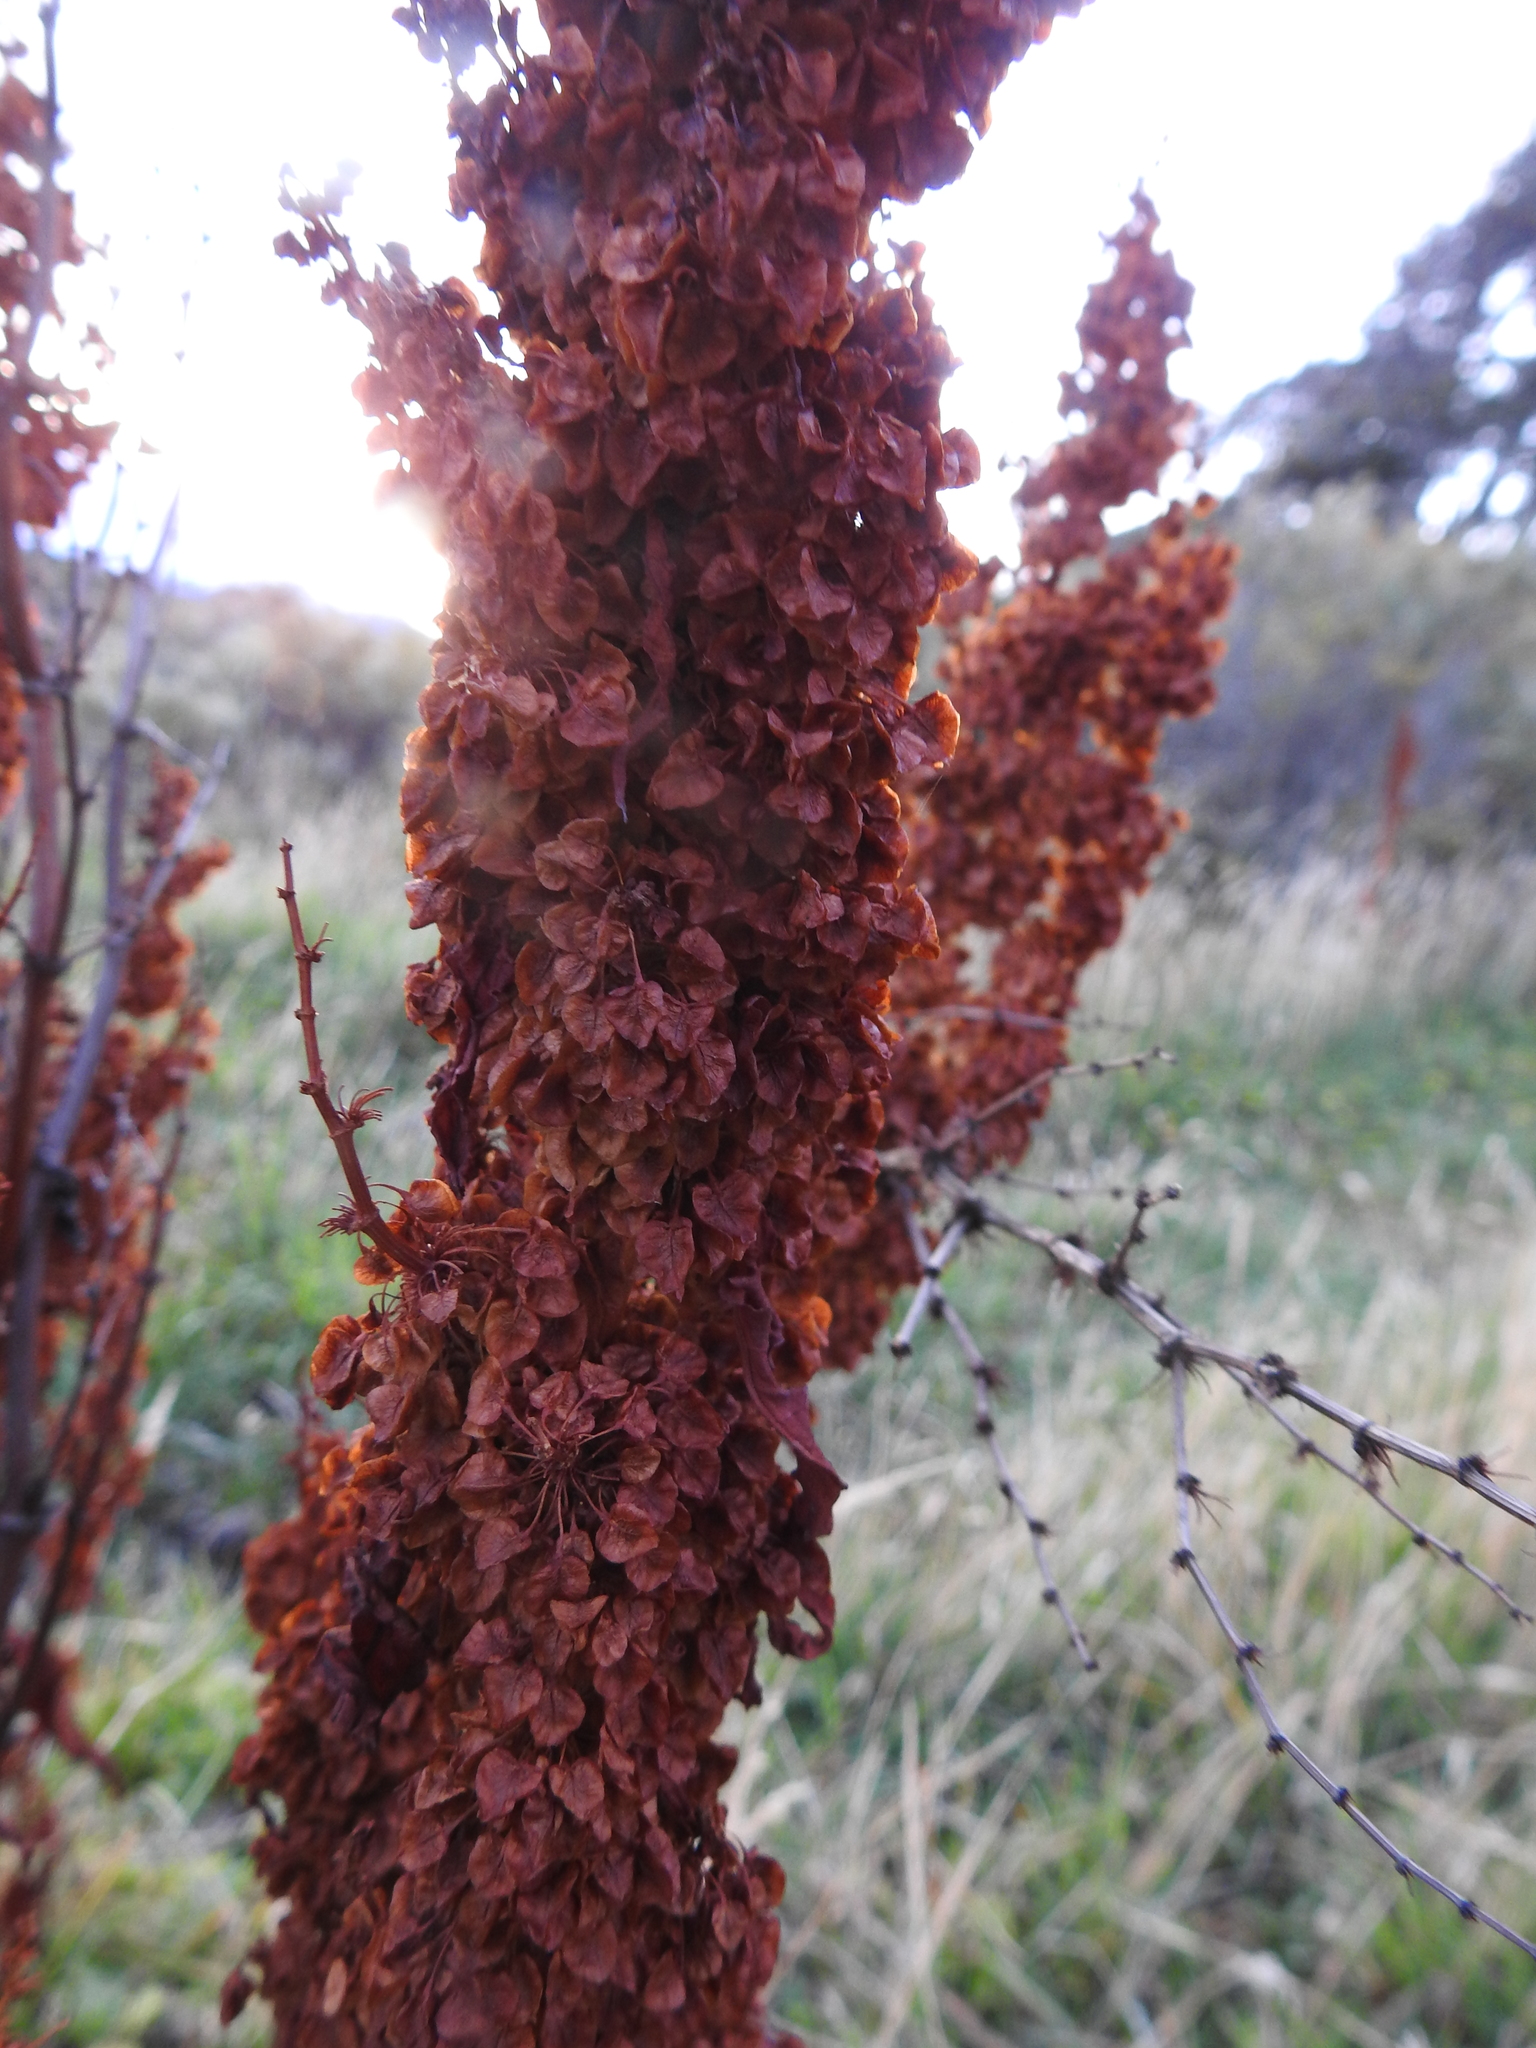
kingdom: Plantae
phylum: Tracheophyta
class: Magnoliopsida
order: Caryophyllales
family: Polygonaceae
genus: Rumex
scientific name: Rumex crispus
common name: Curled dock
